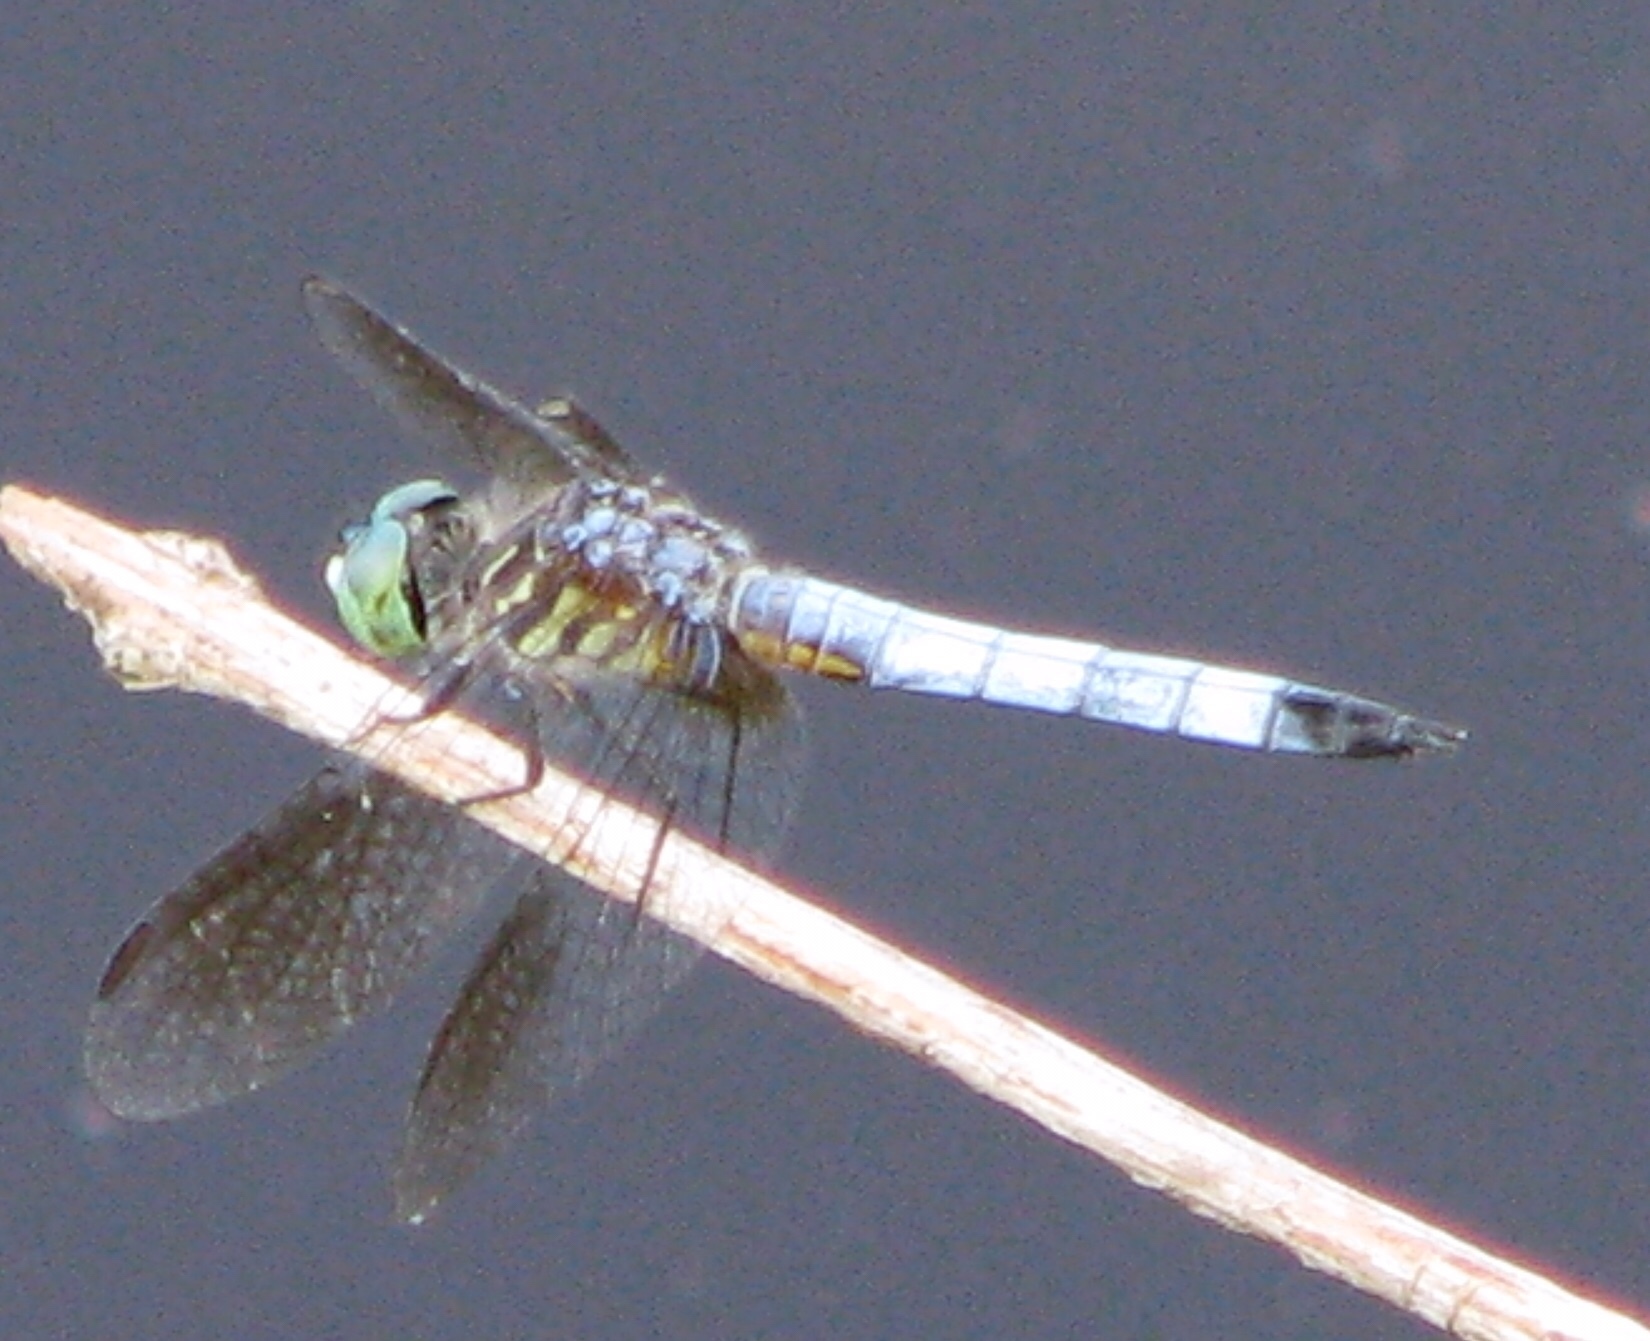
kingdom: Animalia
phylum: Arthropoda
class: Insecta
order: Odonata
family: Libellulidae
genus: Pachydiplax
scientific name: Pachydiplax longipennis
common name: Blue dasher
